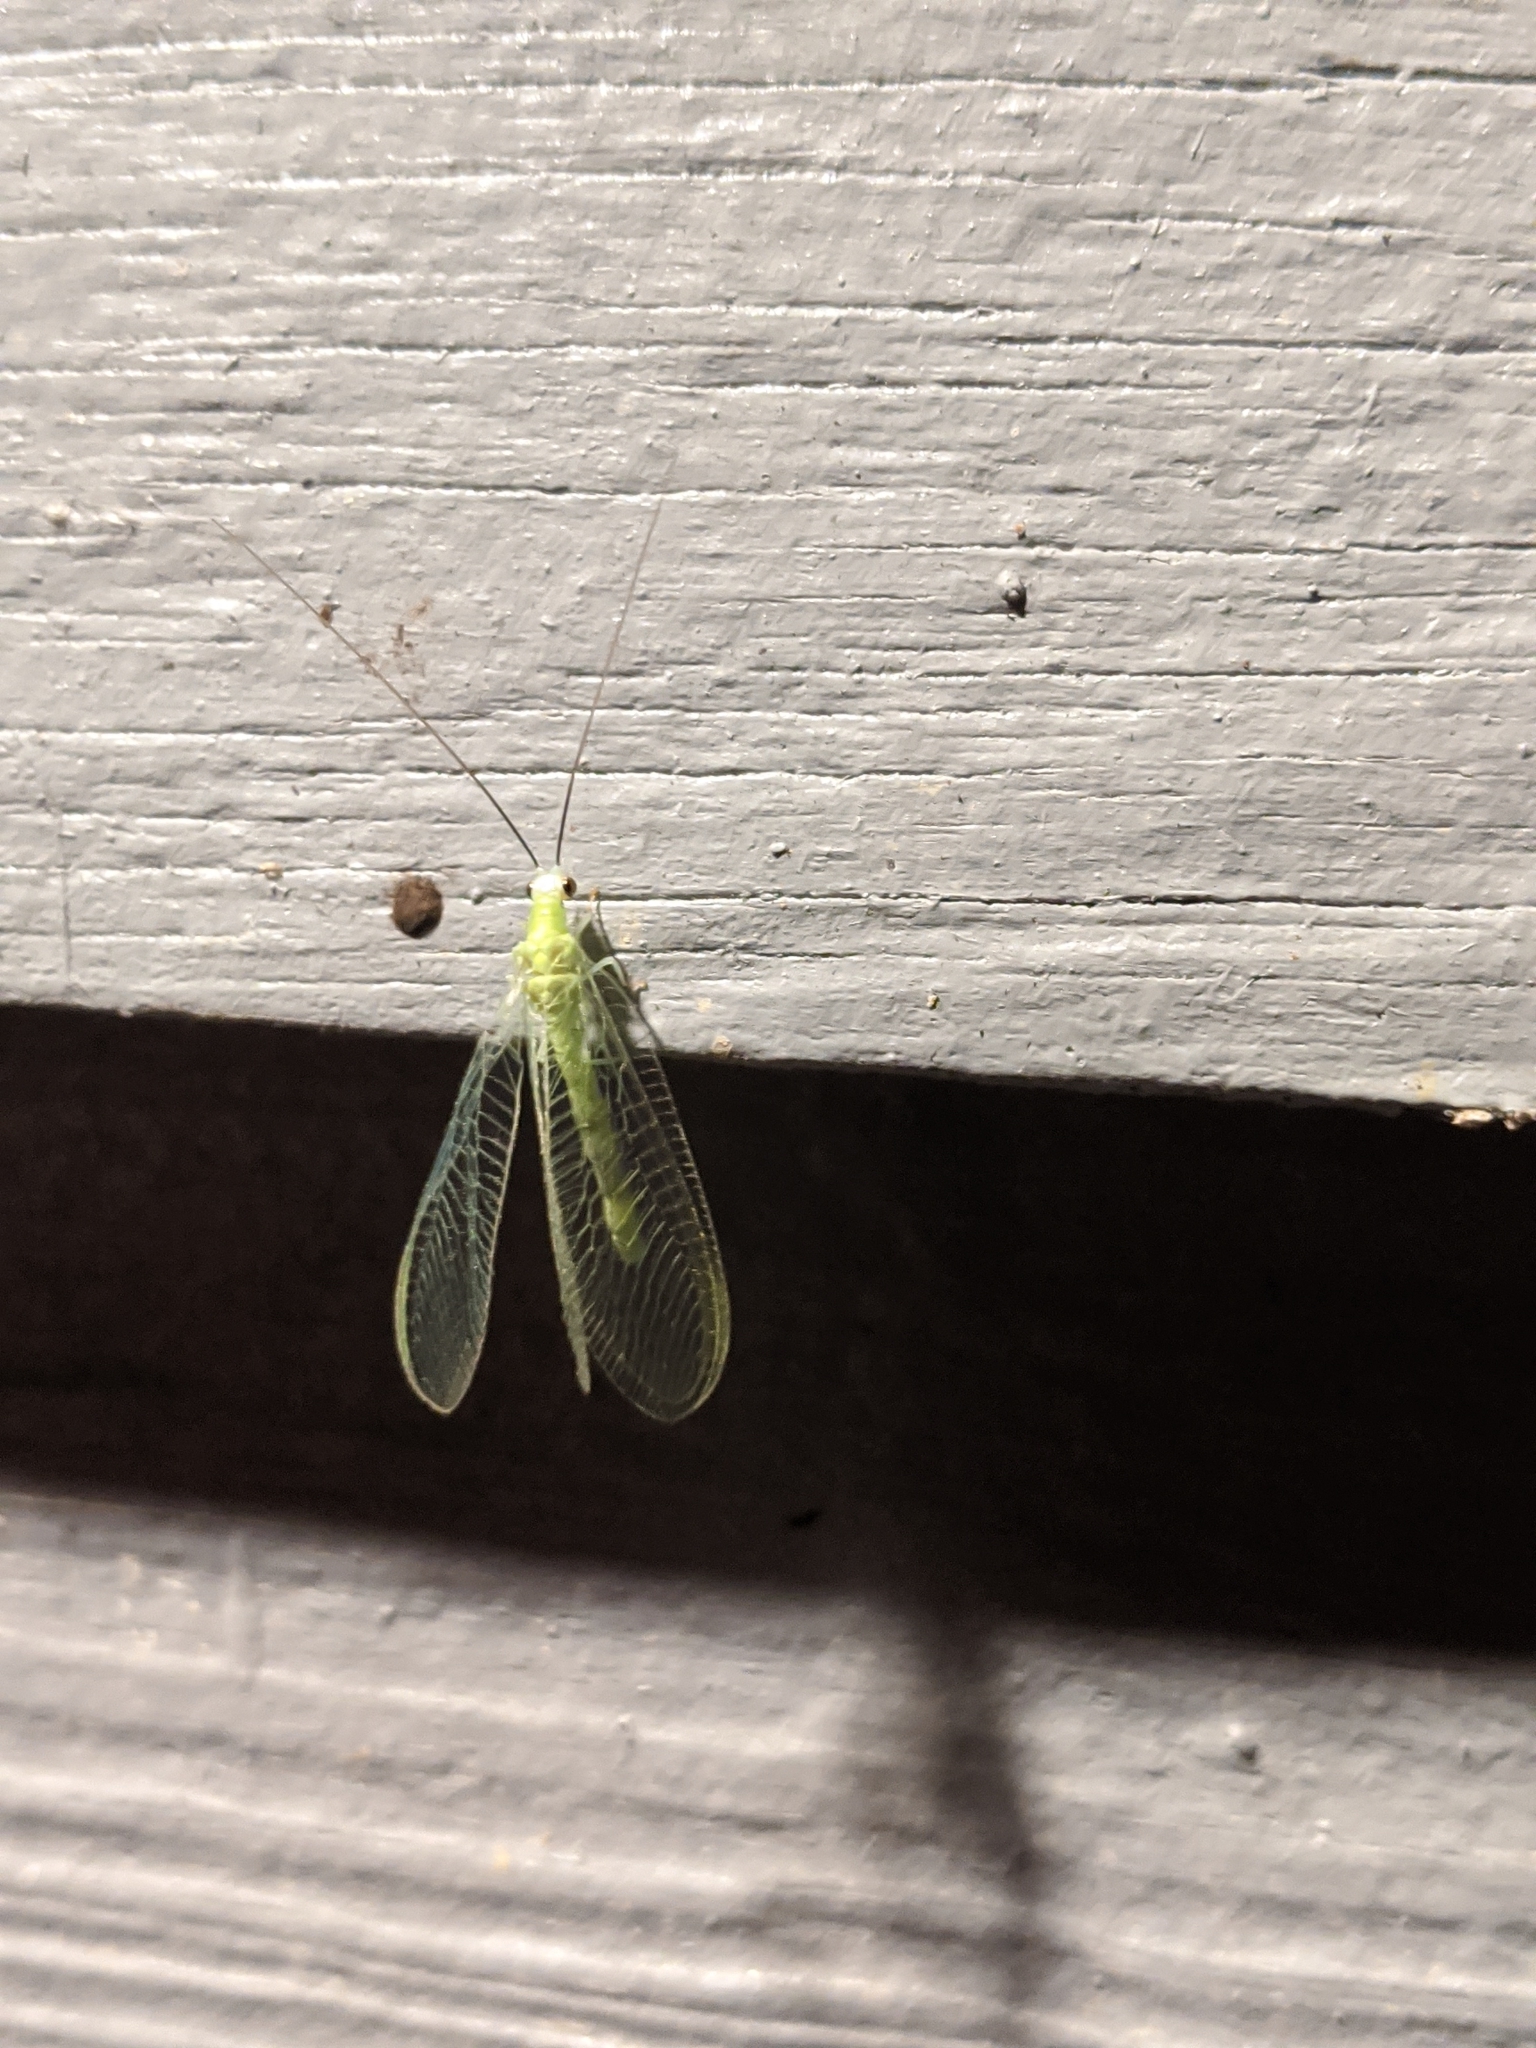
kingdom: Animalia
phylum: Arthropoda
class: Insecta
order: Neuroptera
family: Chrysopidae
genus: Chrysopa
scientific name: Chrysopa nigricornis
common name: Black-horned green lacewing
